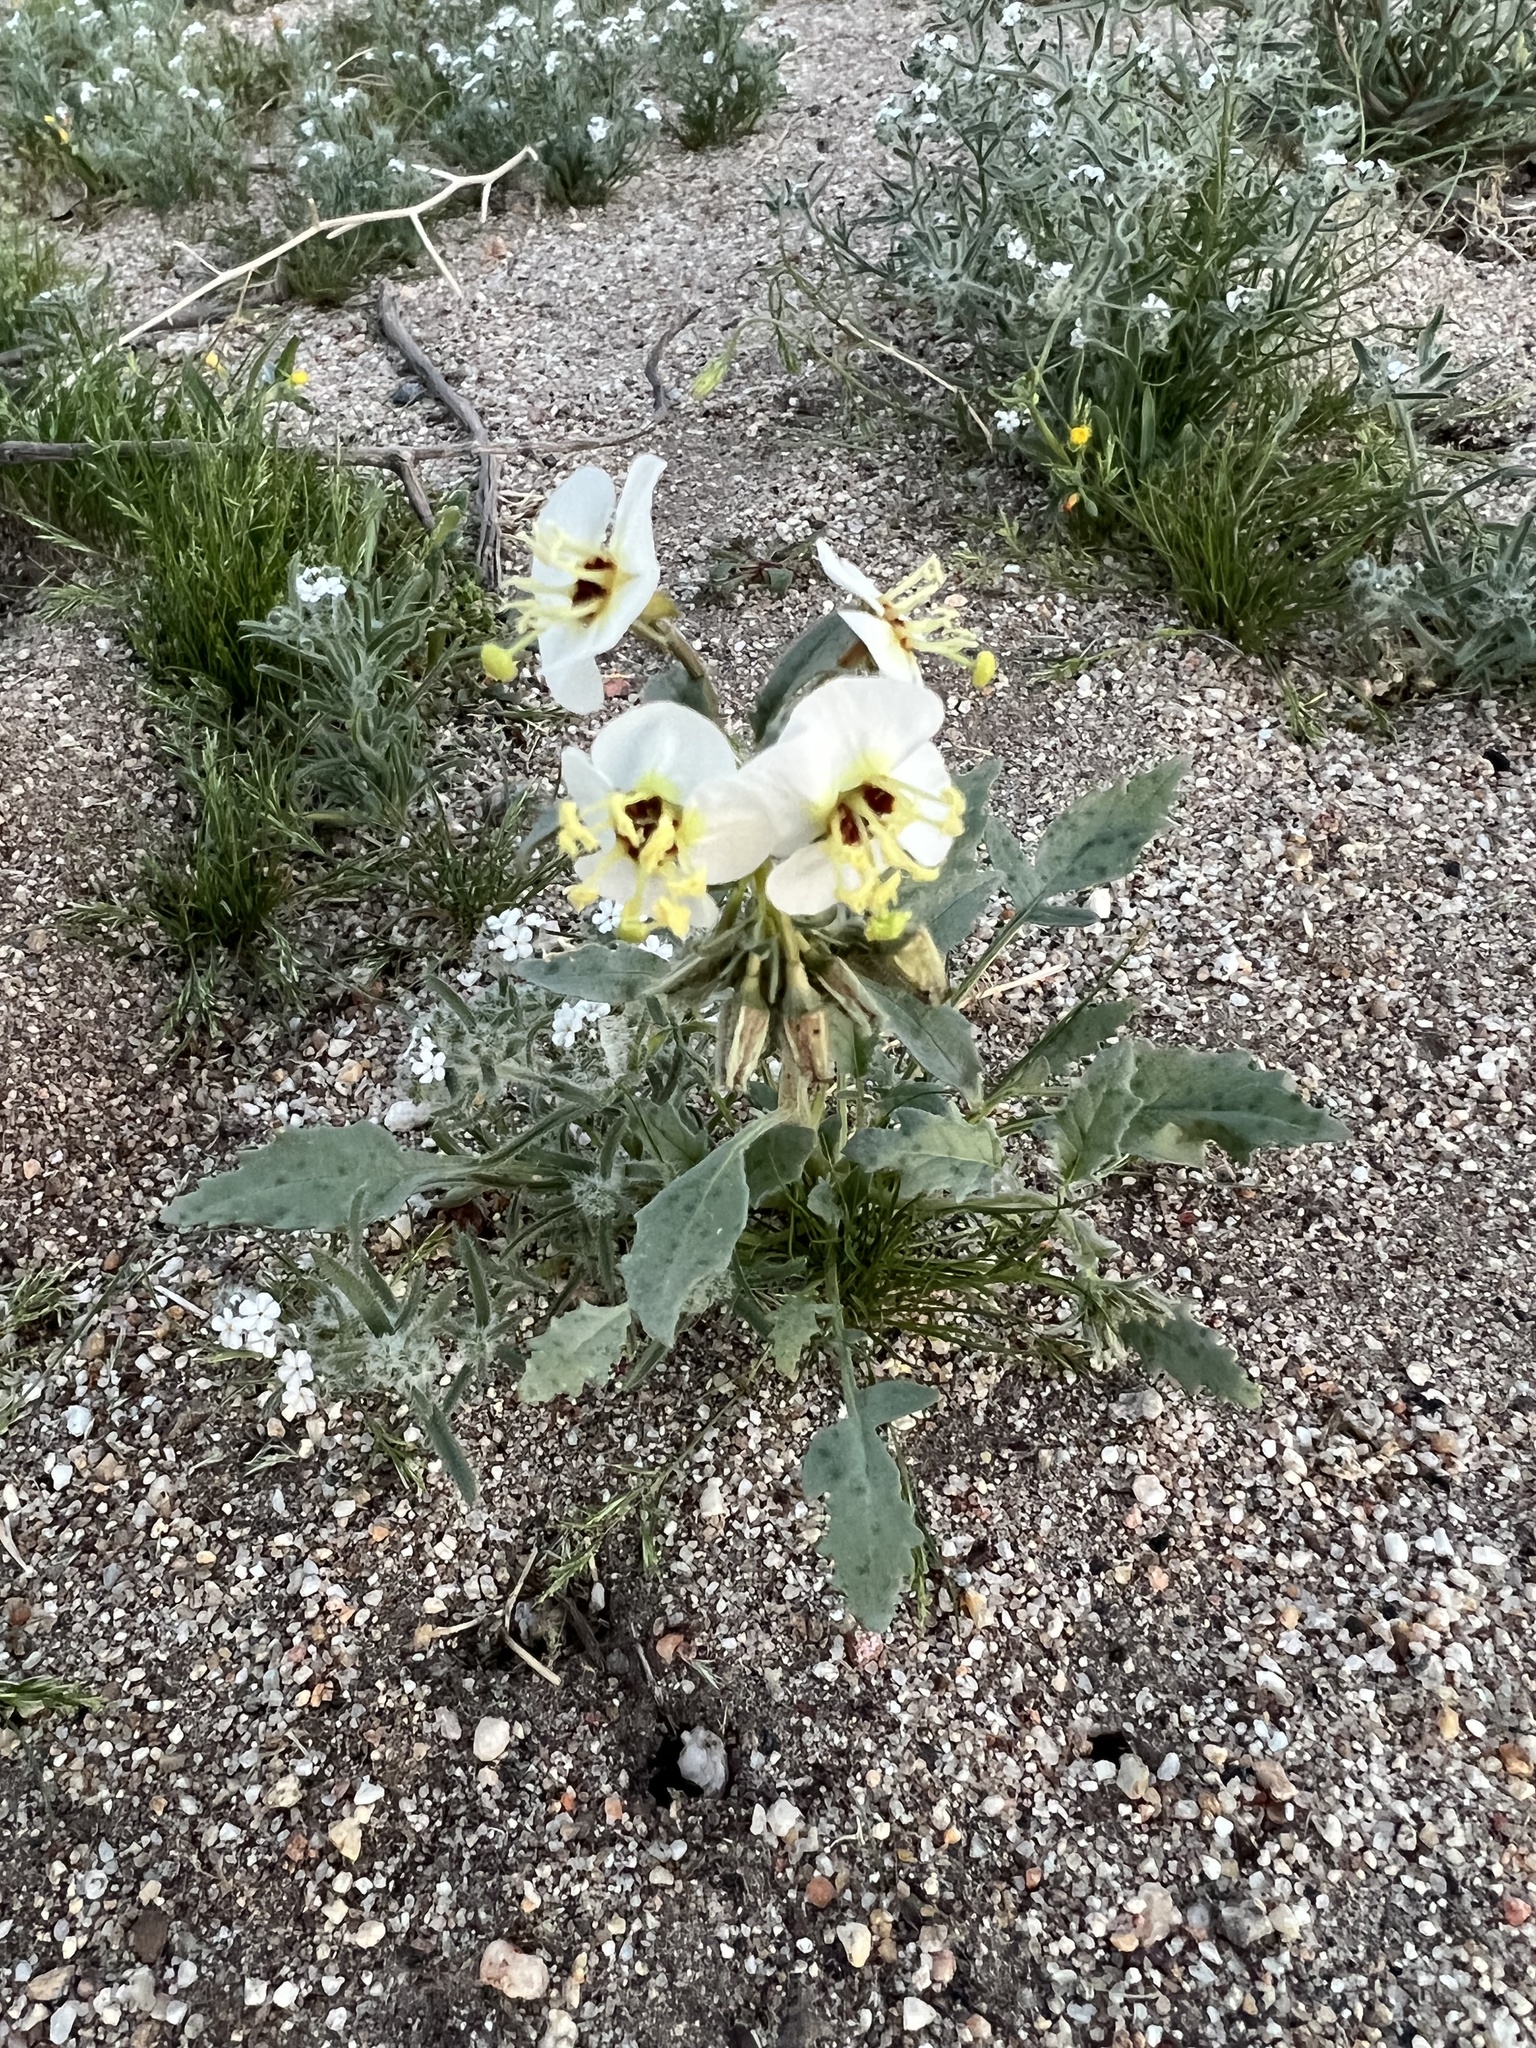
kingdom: Plantae
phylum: Tracheophyta
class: Magnoliopsida
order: Myrtales
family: Onagraceae
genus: Chylismia
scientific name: Chylismia claviformis
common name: Browneyes
